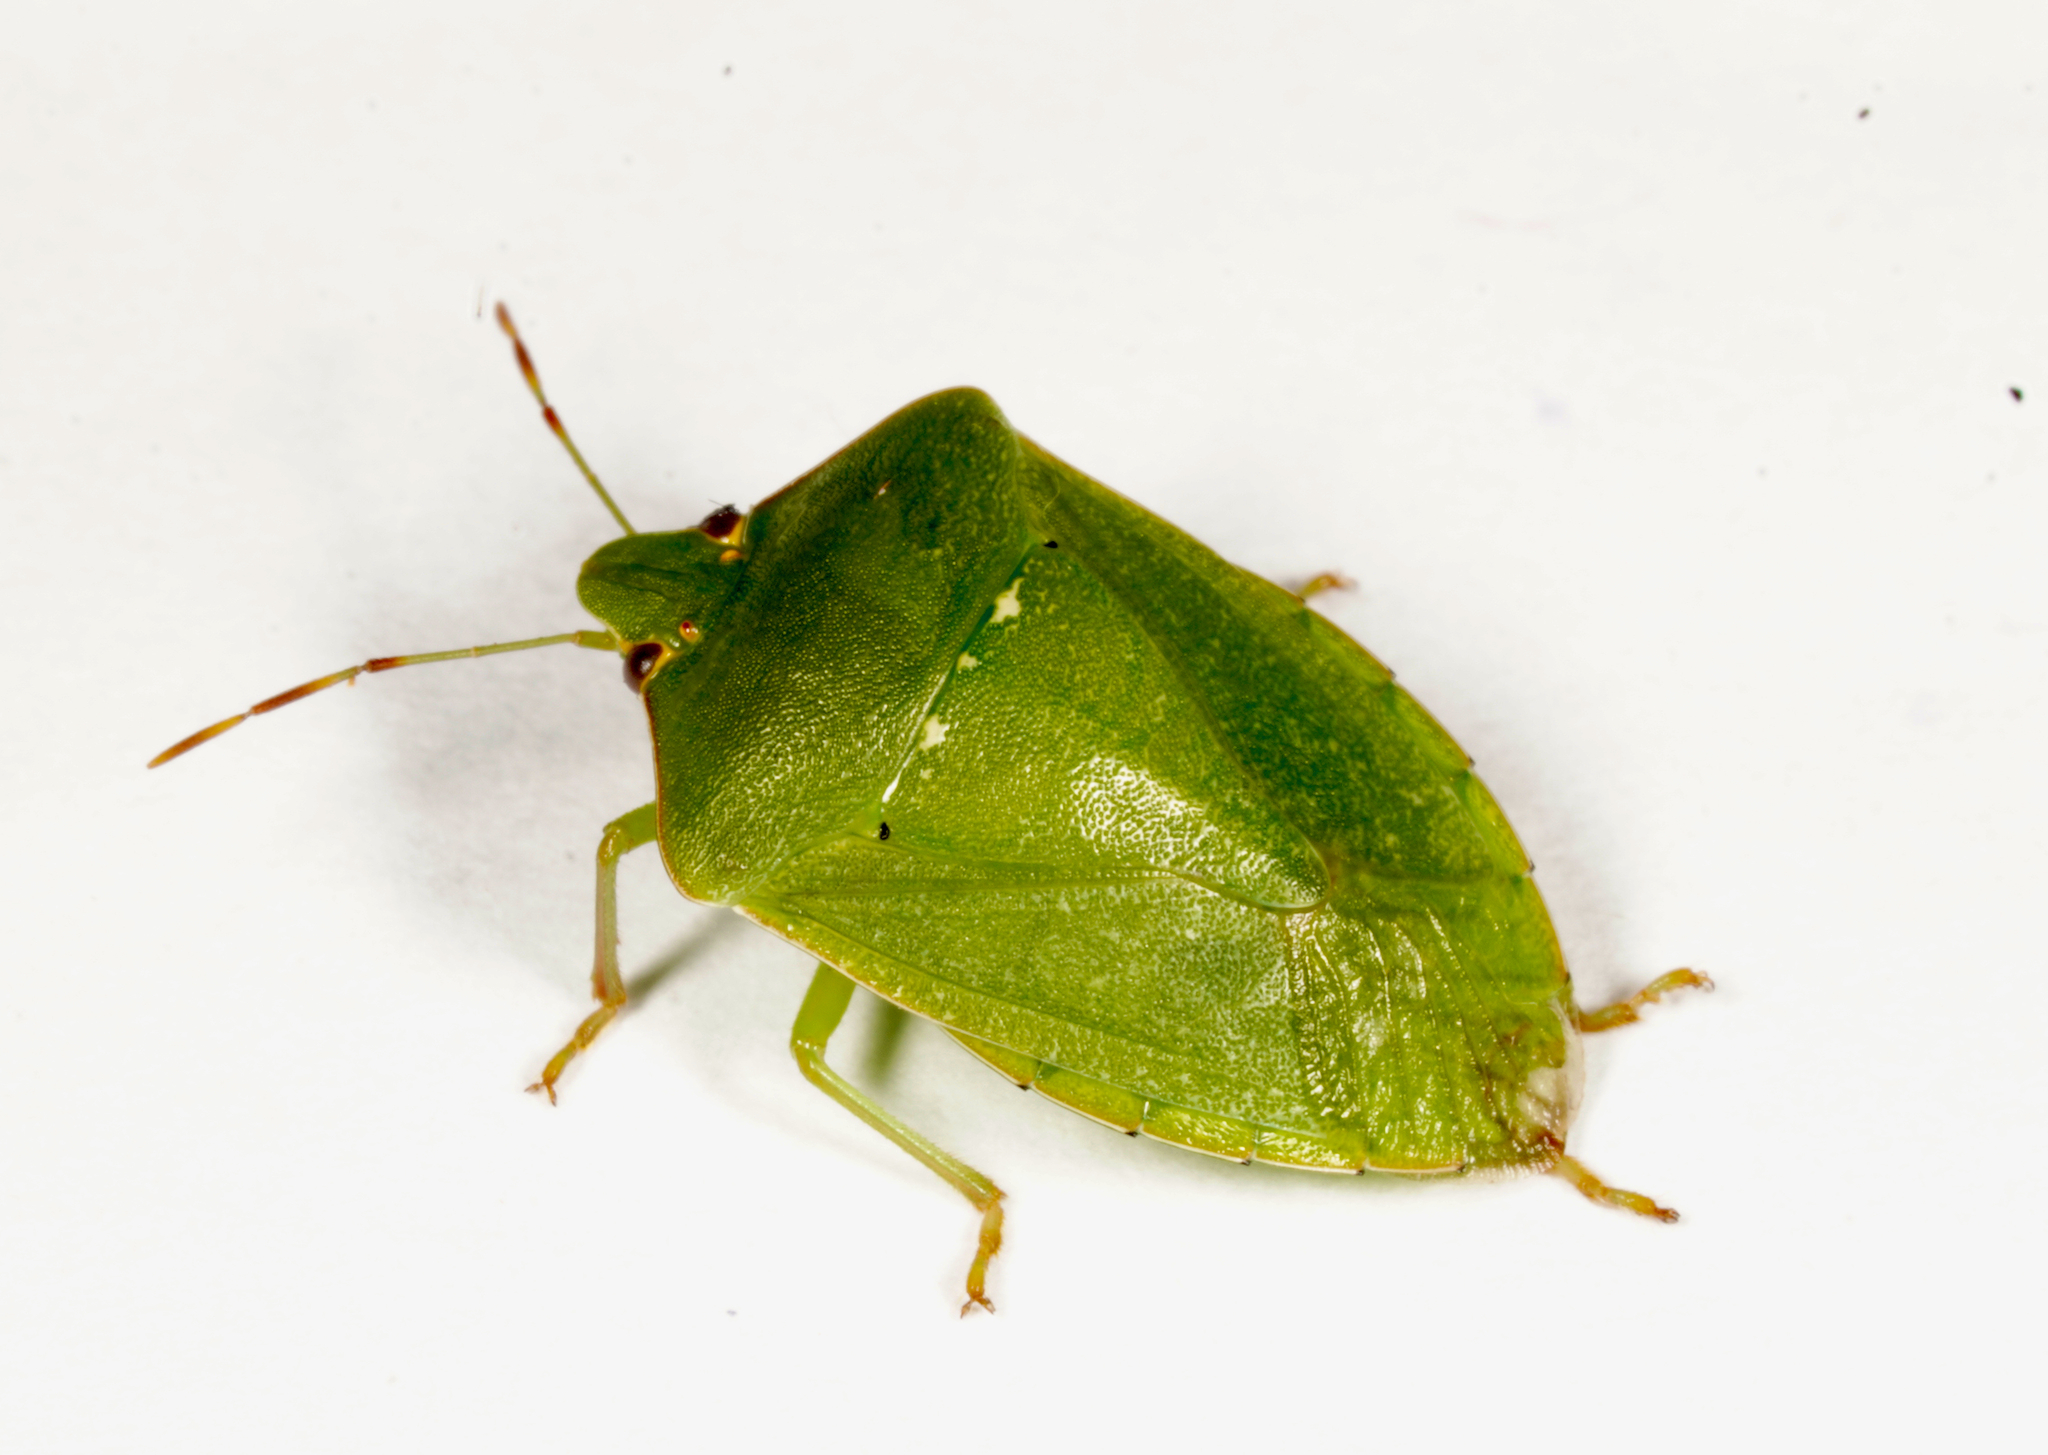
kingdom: Animalia
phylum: Arthropoda
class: Insecta
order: Hemiptera
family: Pentatomidae
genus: Nezara
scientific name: Nezara viridula
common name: Southern green stink bug
